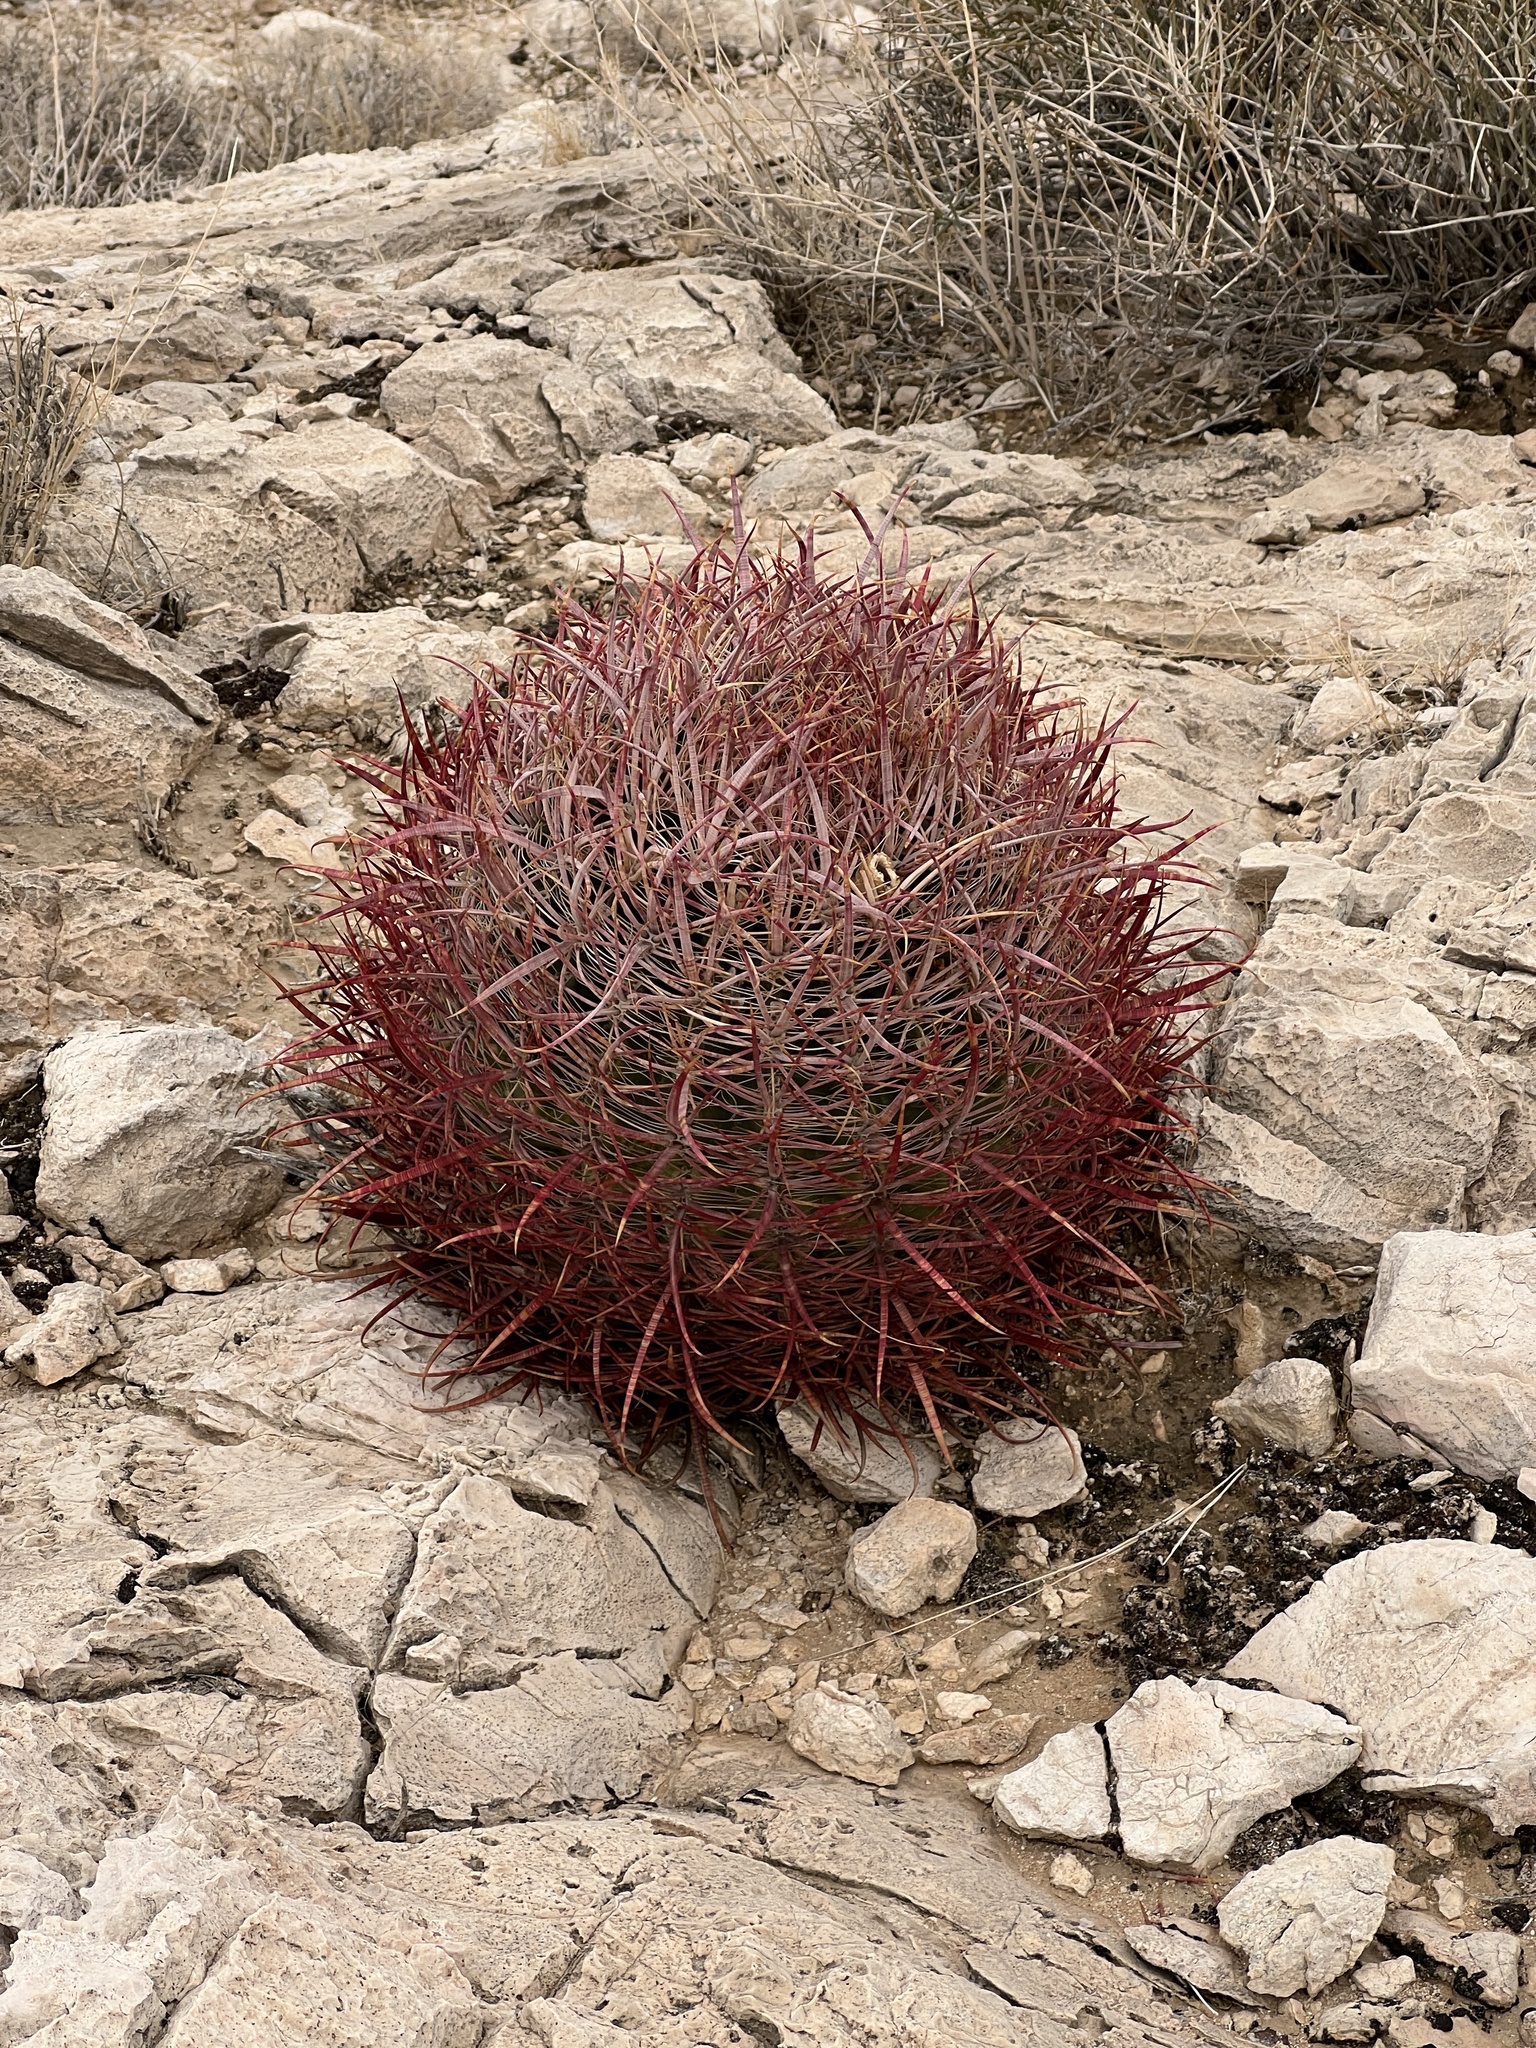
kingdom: Plantae
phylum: Tracheophyta
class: Magnoliopsida
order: Caryophyllales
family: Cactaceae
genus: Ferocactus
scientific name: Ferocactus cylindraceus
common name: California barrel cactus
